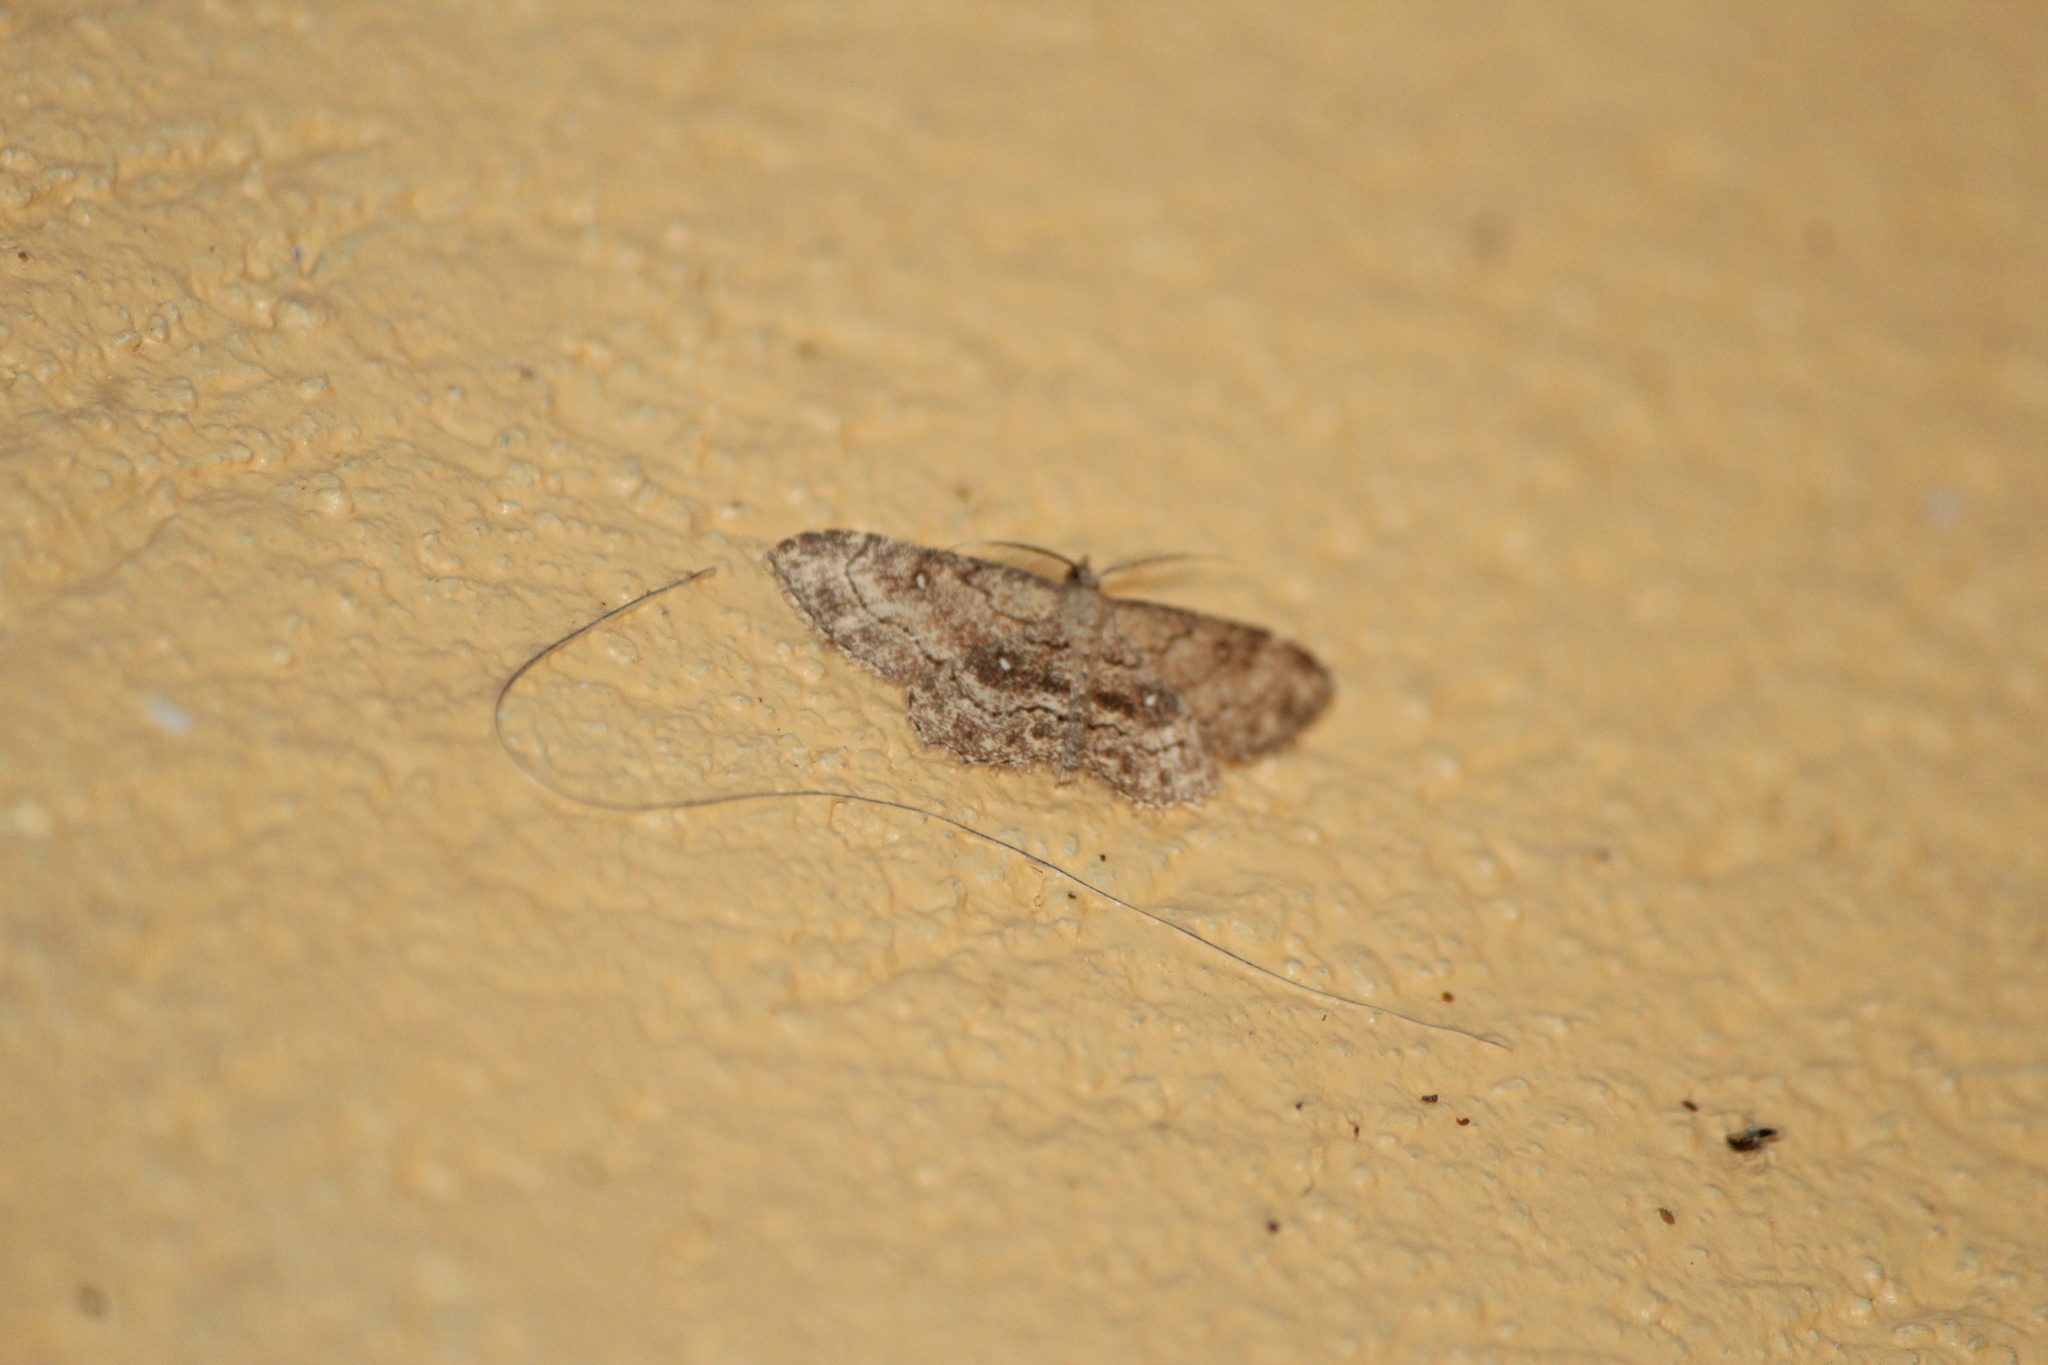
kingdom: Animalia
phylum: Arthropoda
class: Insecta
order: Lepidoptera
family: Geometridae
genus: Cyclophora
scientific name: Cyclophora nanaria
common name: Cankerworm
